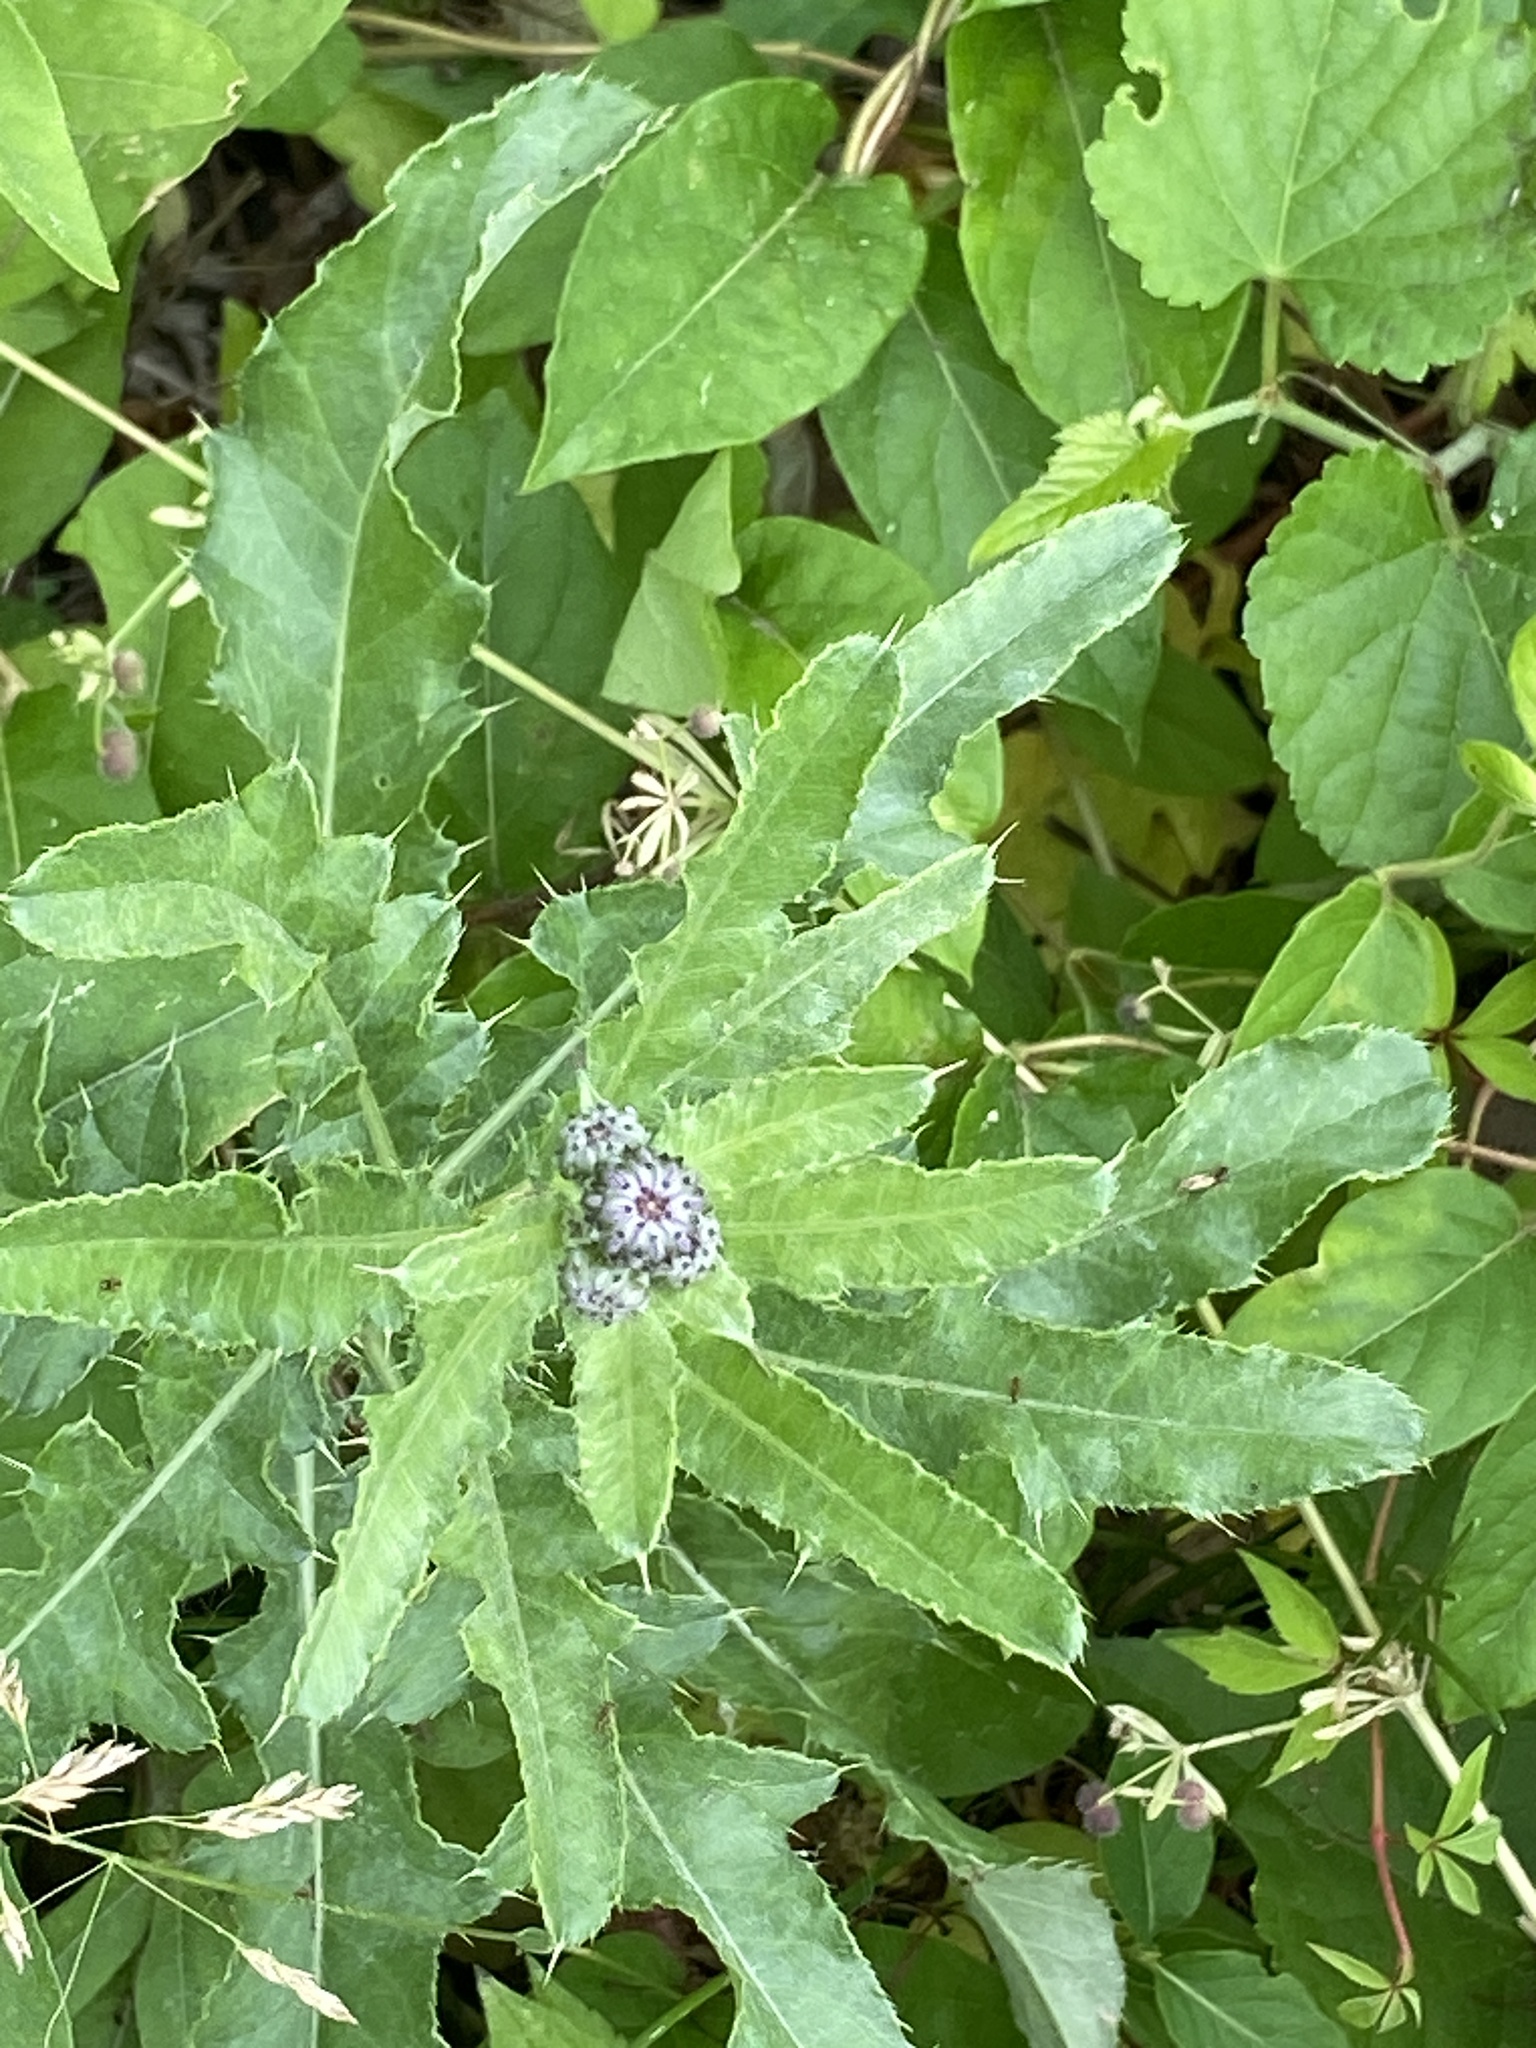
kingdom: Plantae
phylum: Tracheophyta
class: Magnoliopsida
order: Asterales
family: Asteraceae
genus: Cirsium
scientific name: Cirsium arvense
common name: Creeping thistle
